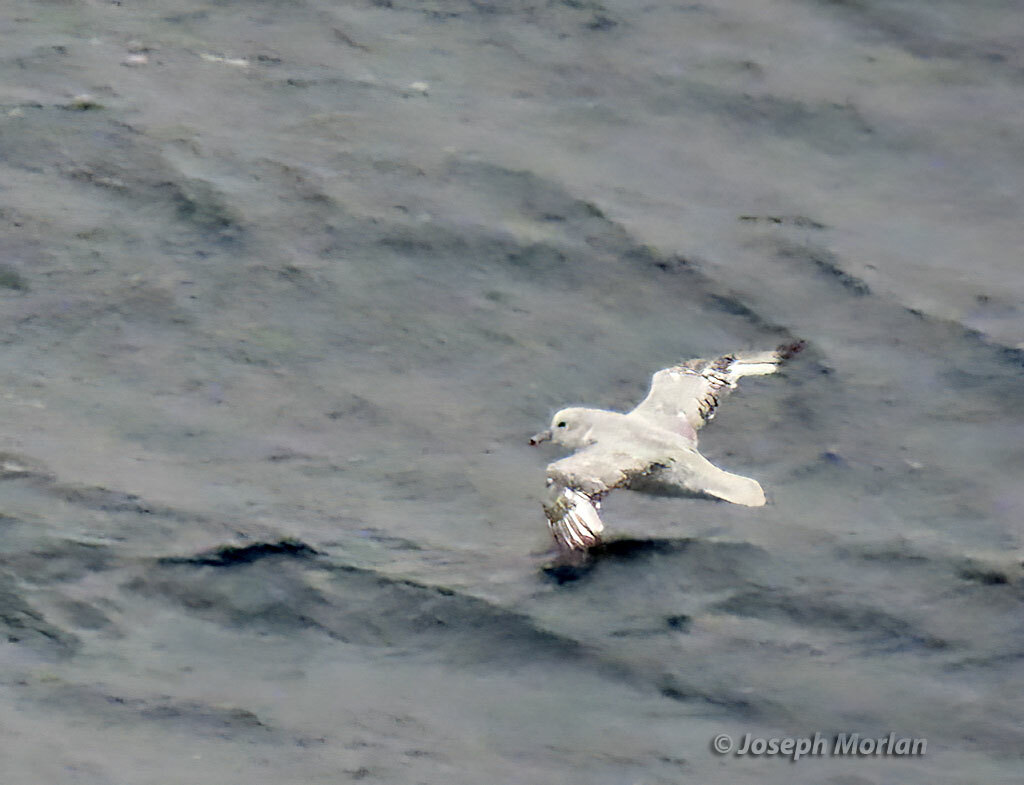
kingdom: Animalia
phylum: Chordata
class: Aves
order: Procellariiformes
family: Procellariidae
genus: Fulmarus
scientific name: Fulmarus glacialoides
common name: Southern fulmar
